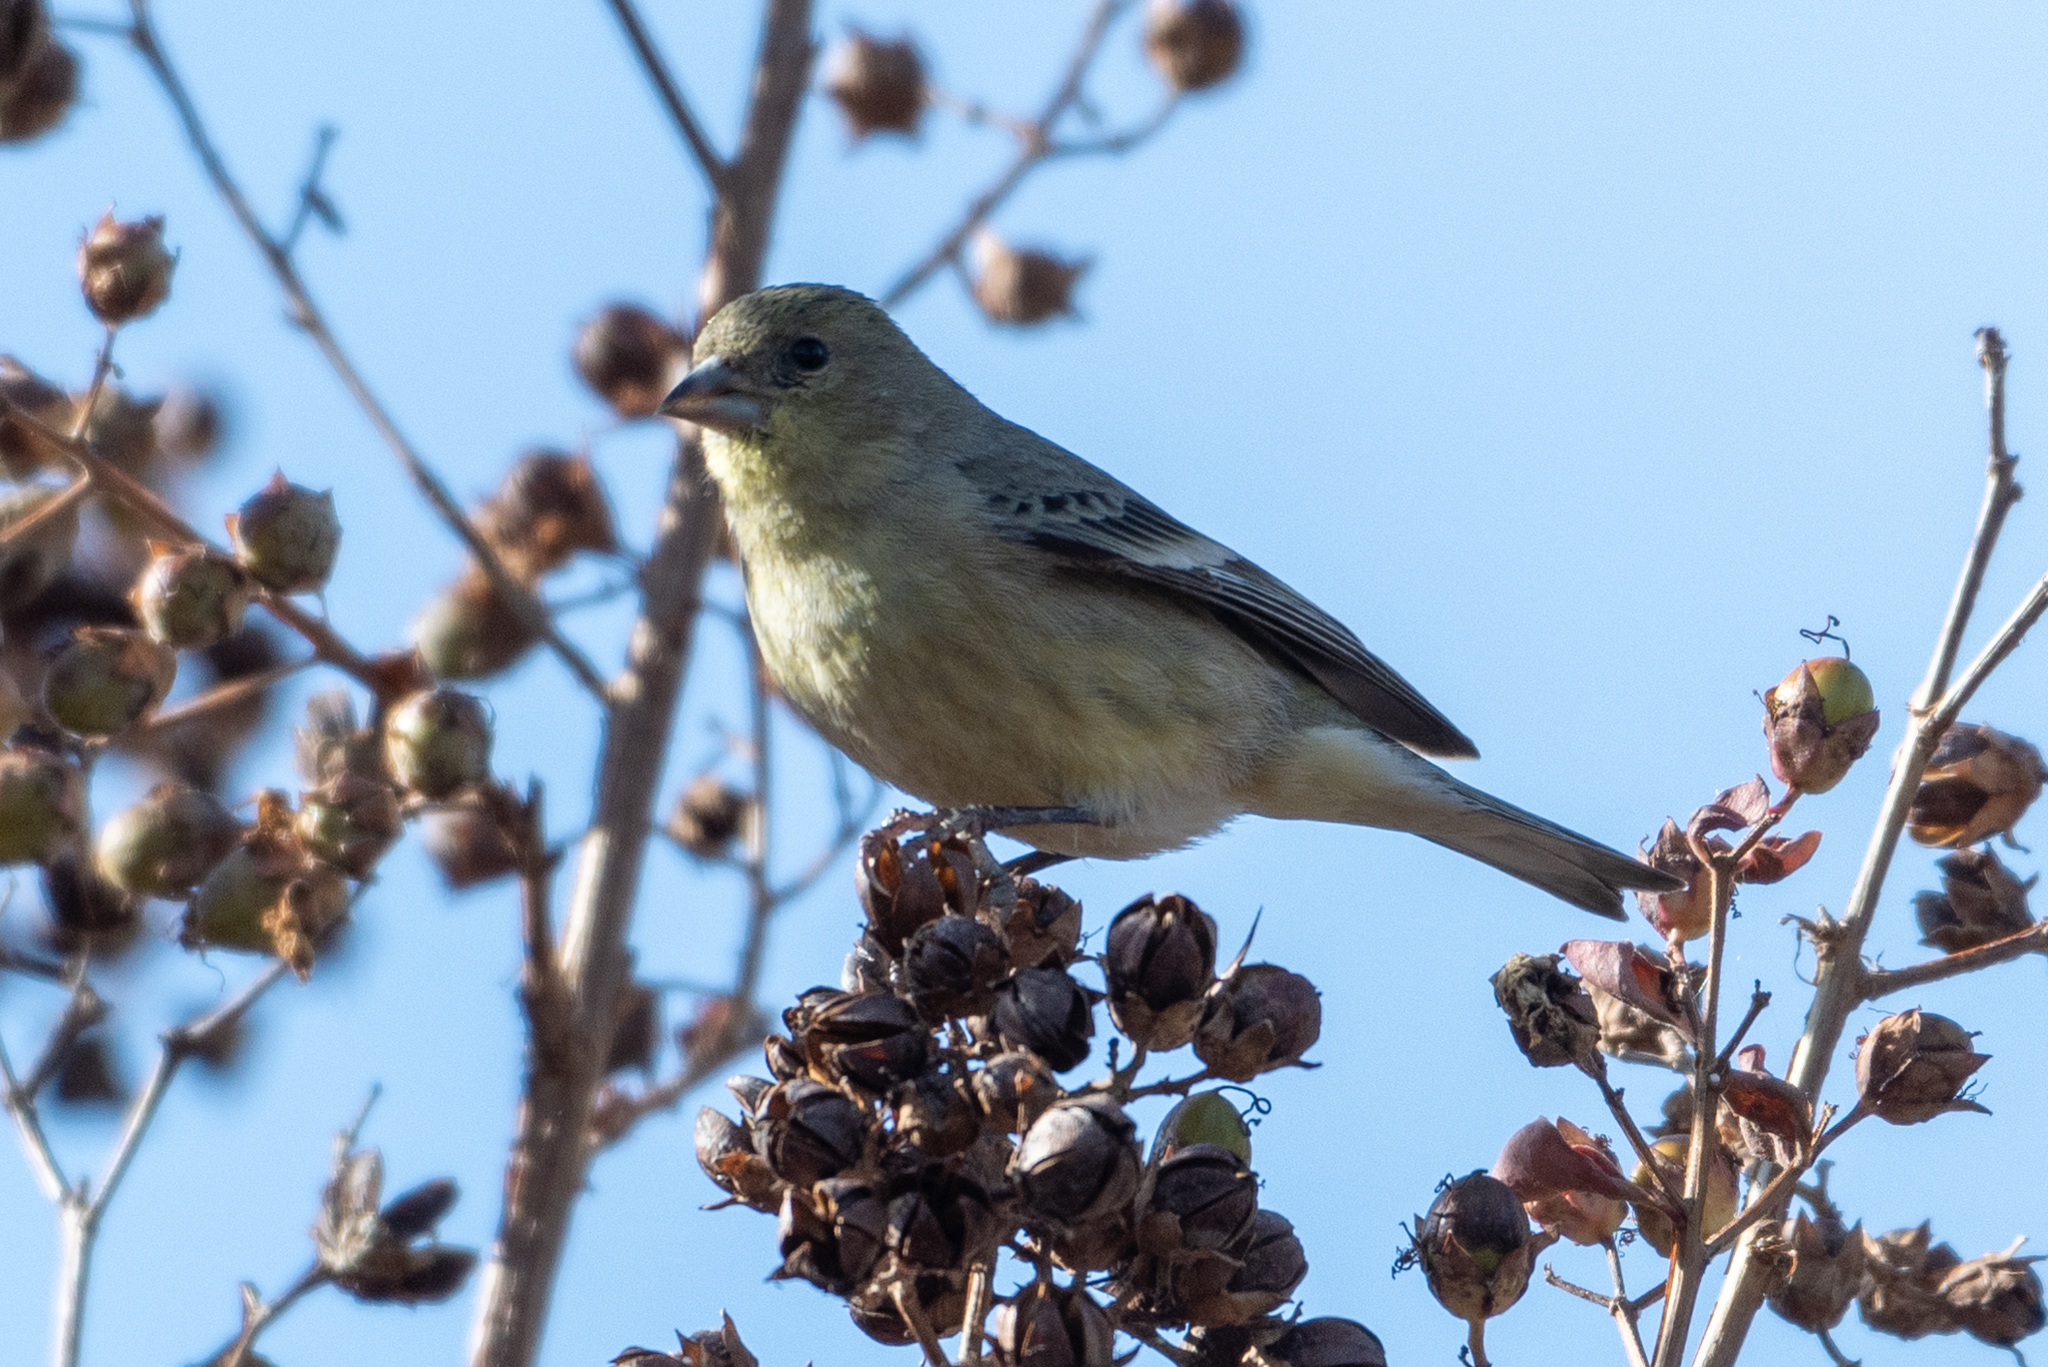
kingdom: Animalia
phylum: Chordata
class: Aves
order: Passeriformes
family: Fringillidae
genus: Spinus
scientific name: Spinus psaltria
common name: Lesser goldfinch
